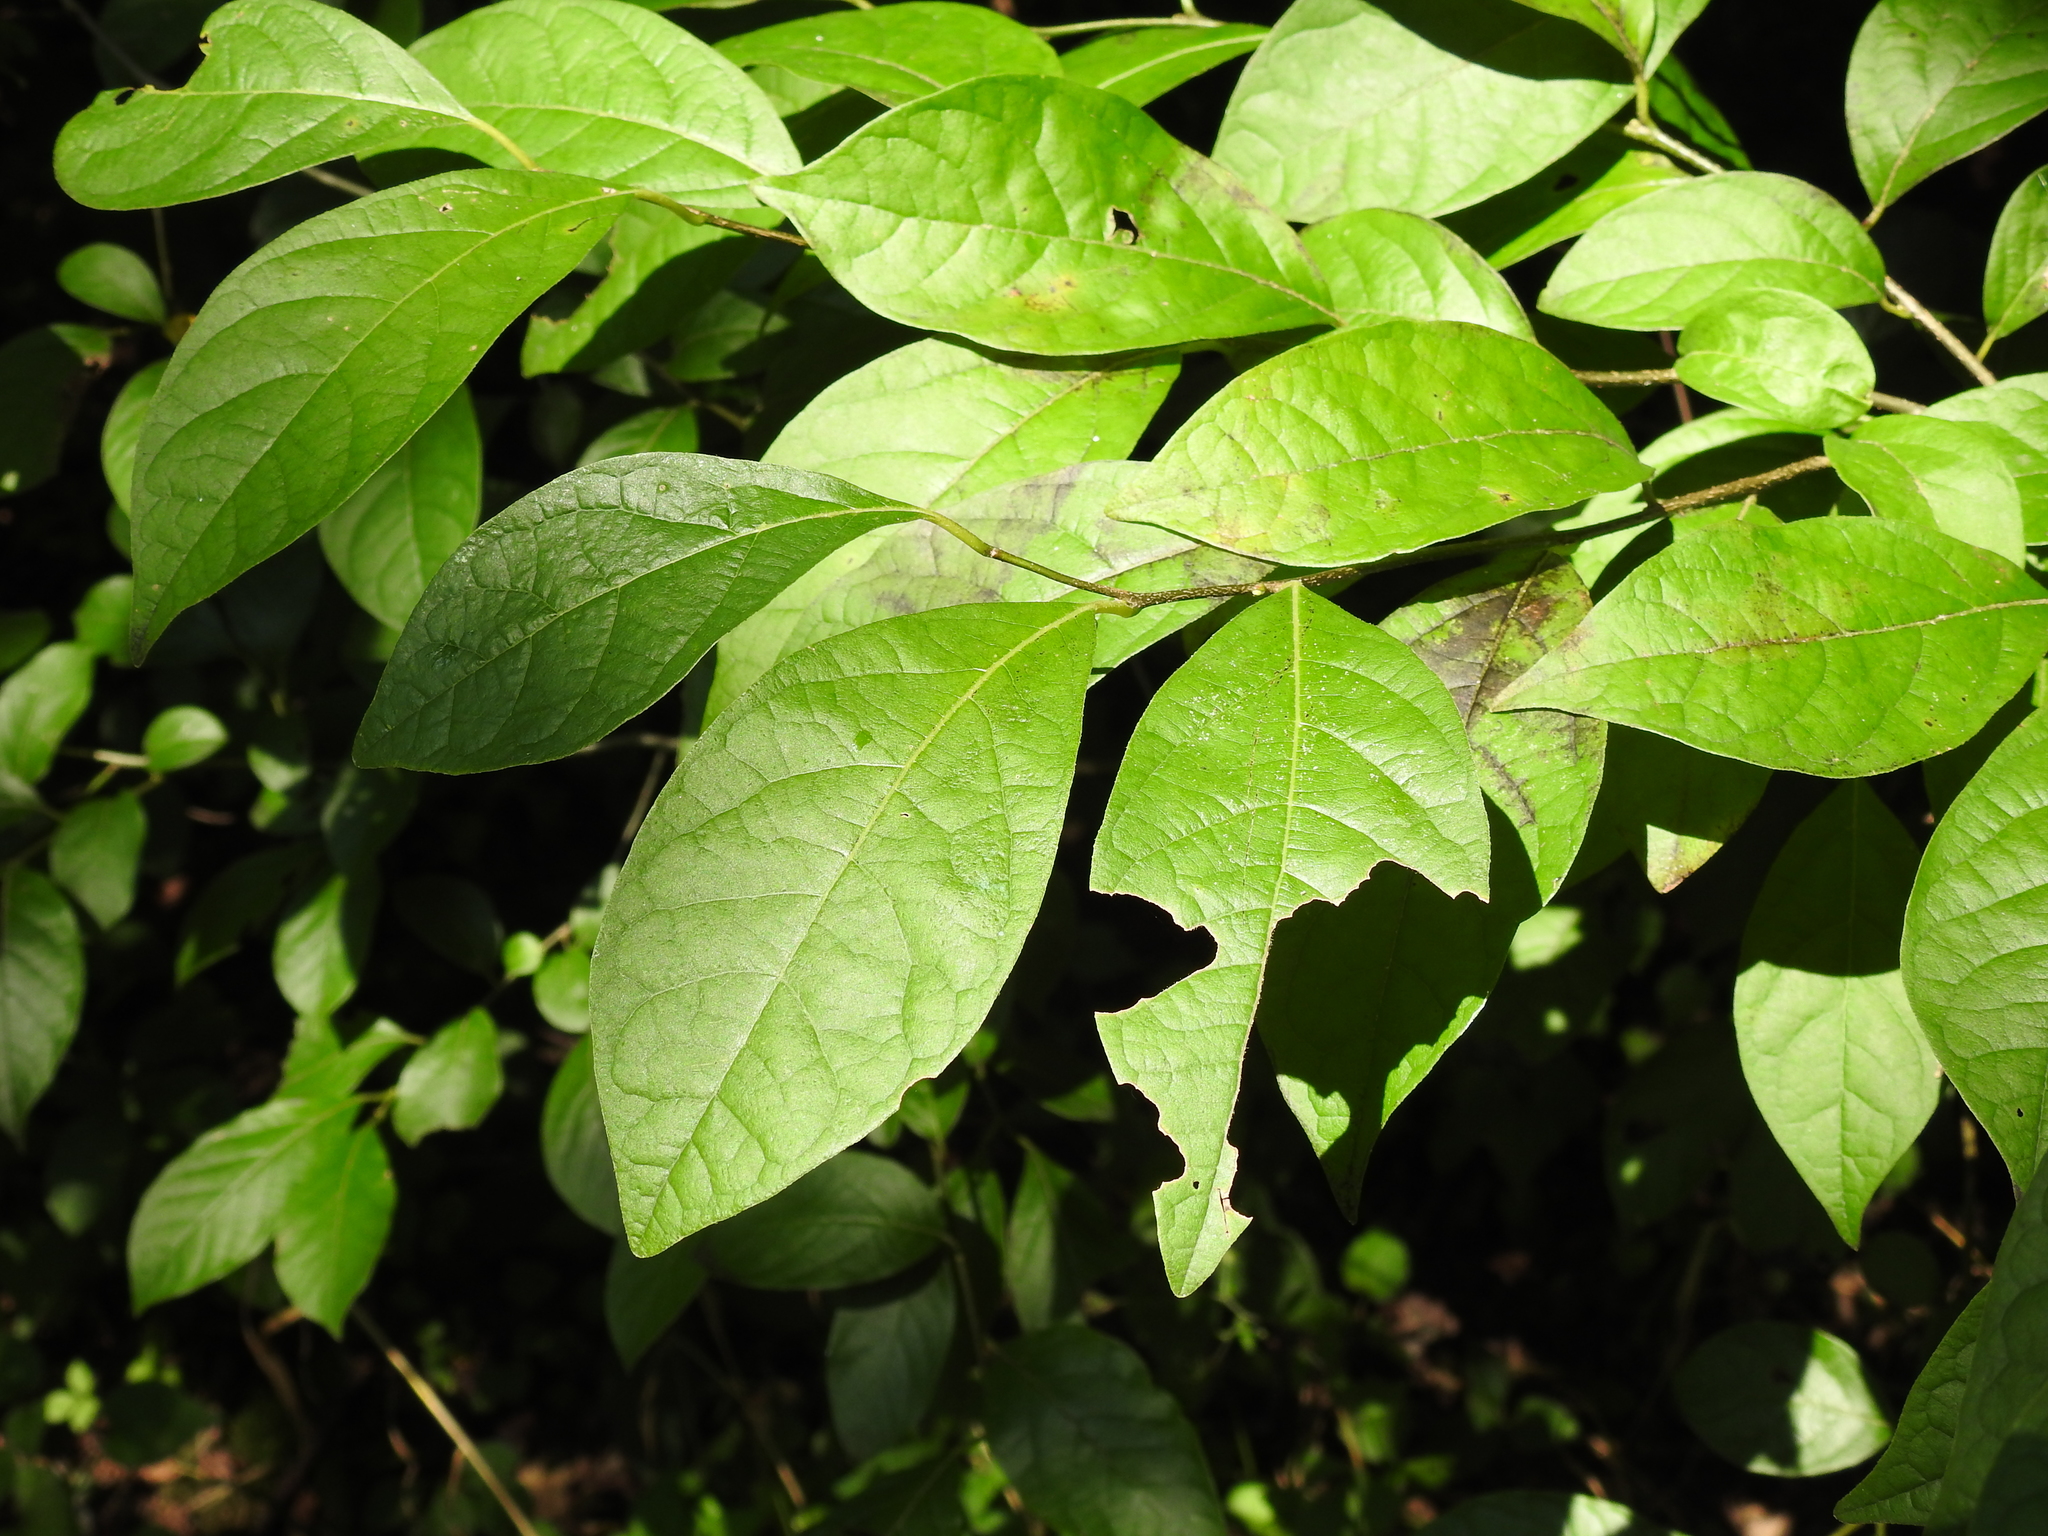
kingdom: Plantae
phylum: Tracheophyta
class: Magnoliopsida
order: Laurales
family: Lauraceae
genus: Lindera
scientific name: Lindera benzoin
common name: Spicebush
